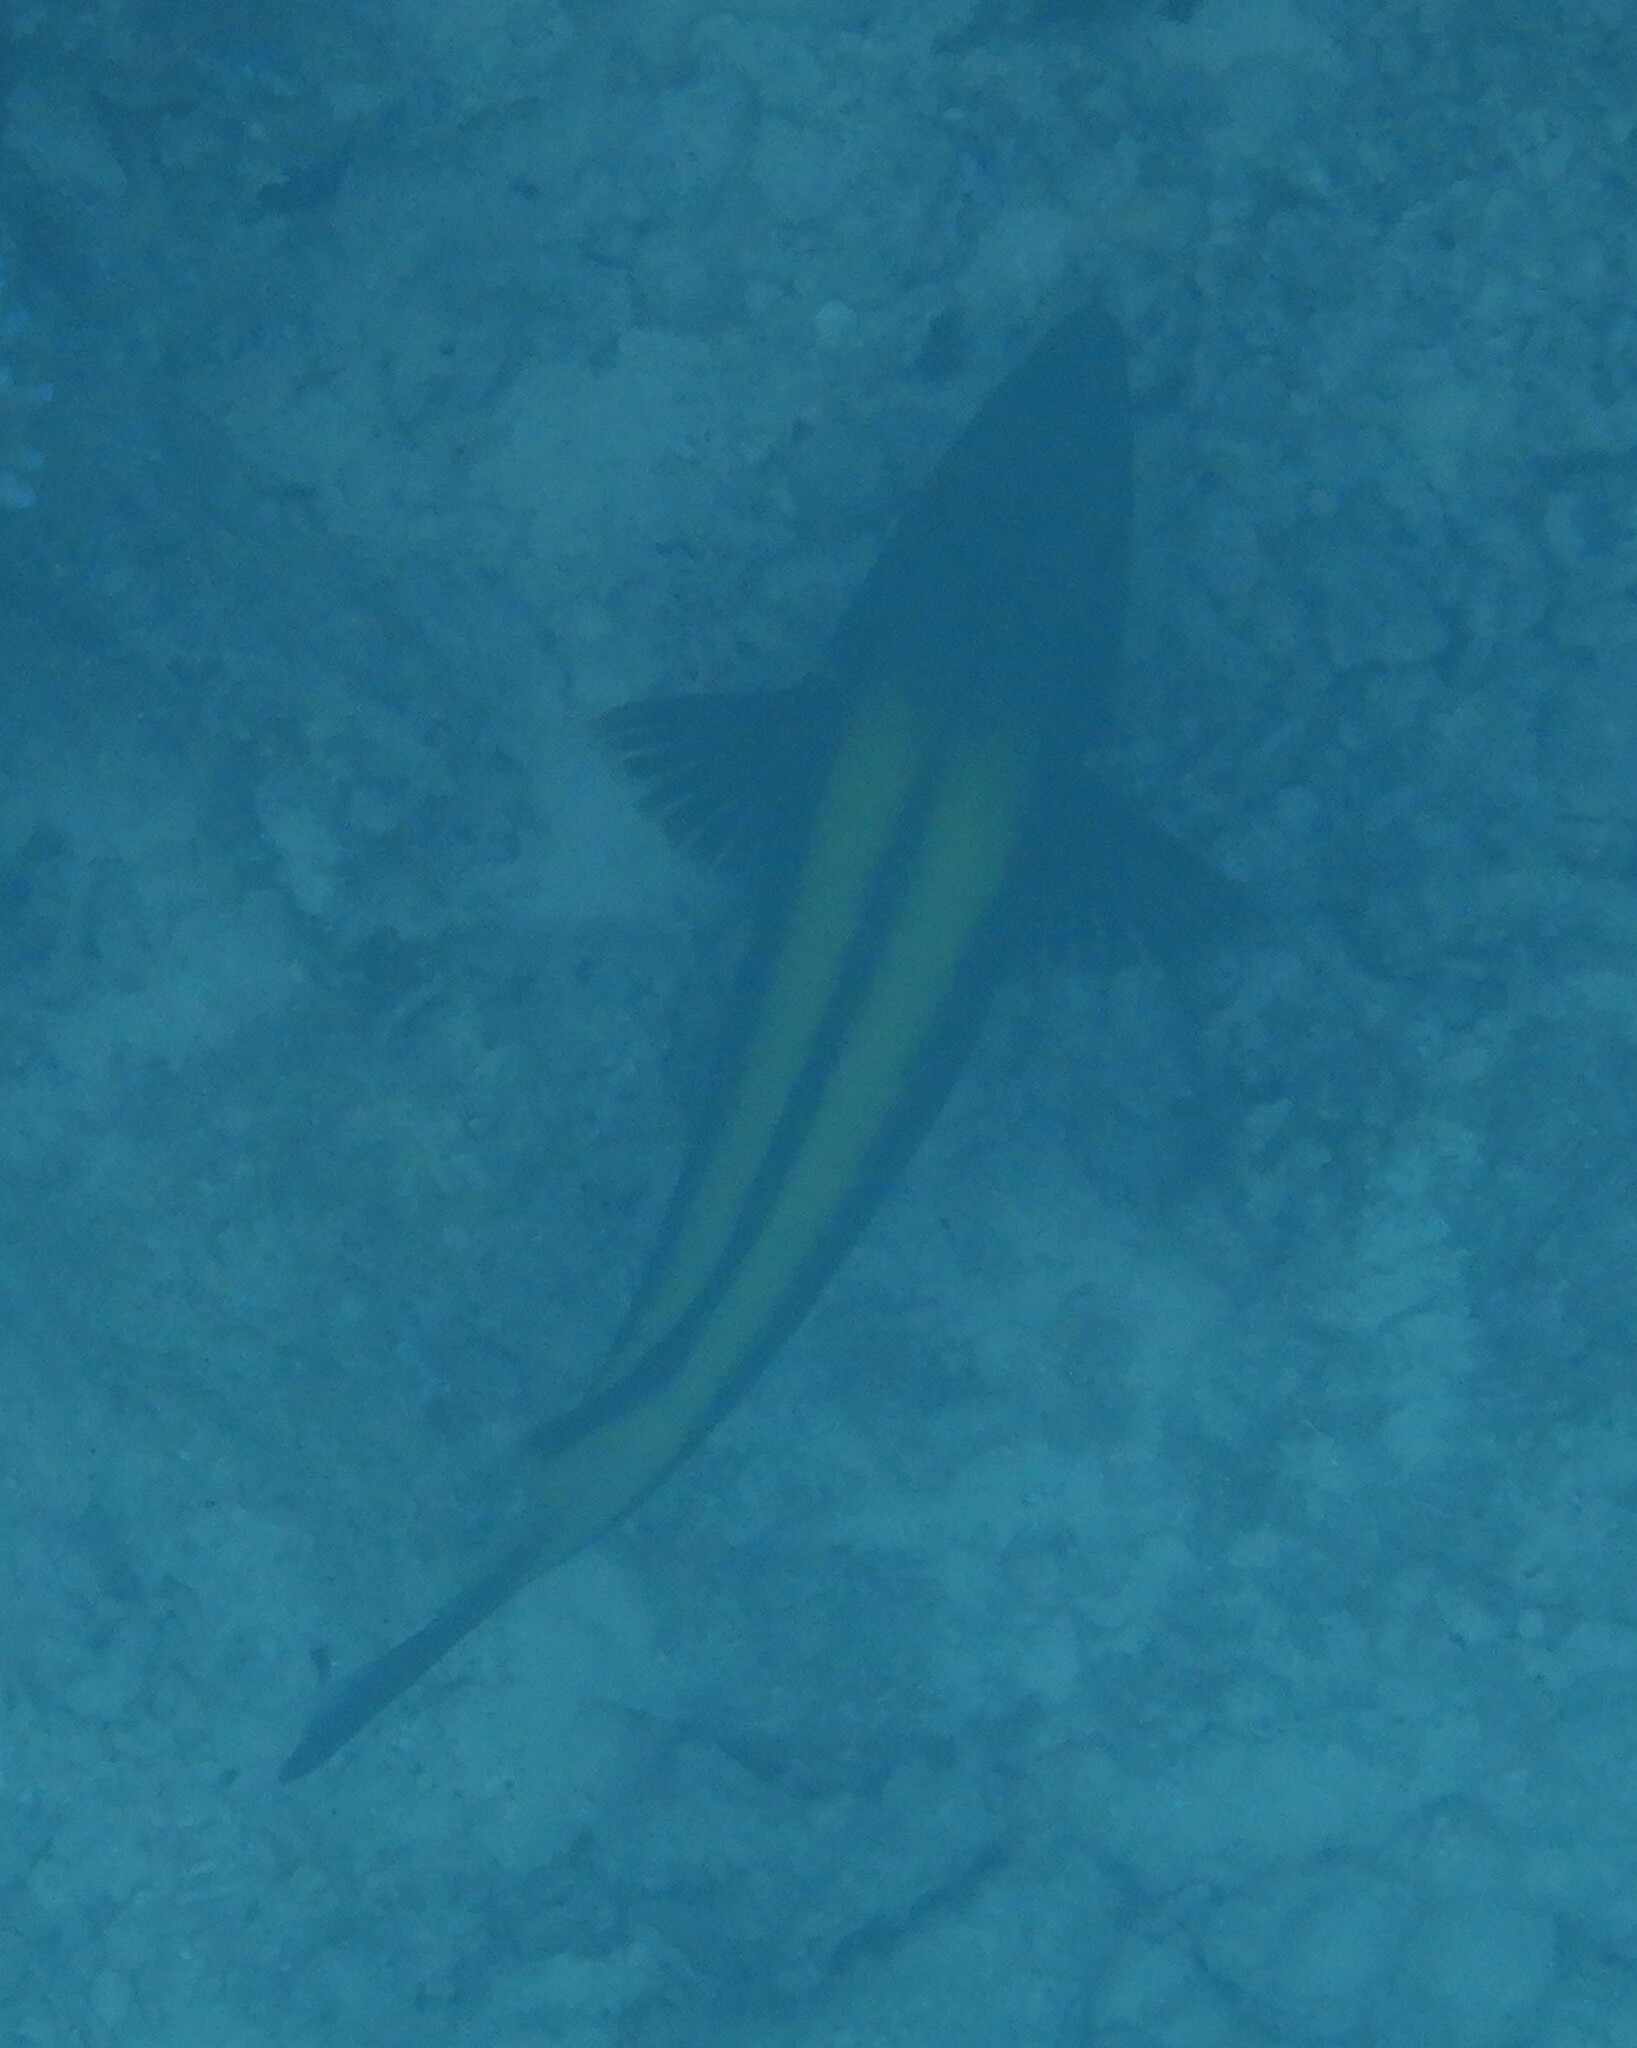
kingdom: Animalia
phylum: Chordata
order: Perciformes
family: Scaridae
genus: Cetoscarus
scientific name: Cetoscarus bicolor
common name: Bicolour parrotfish
